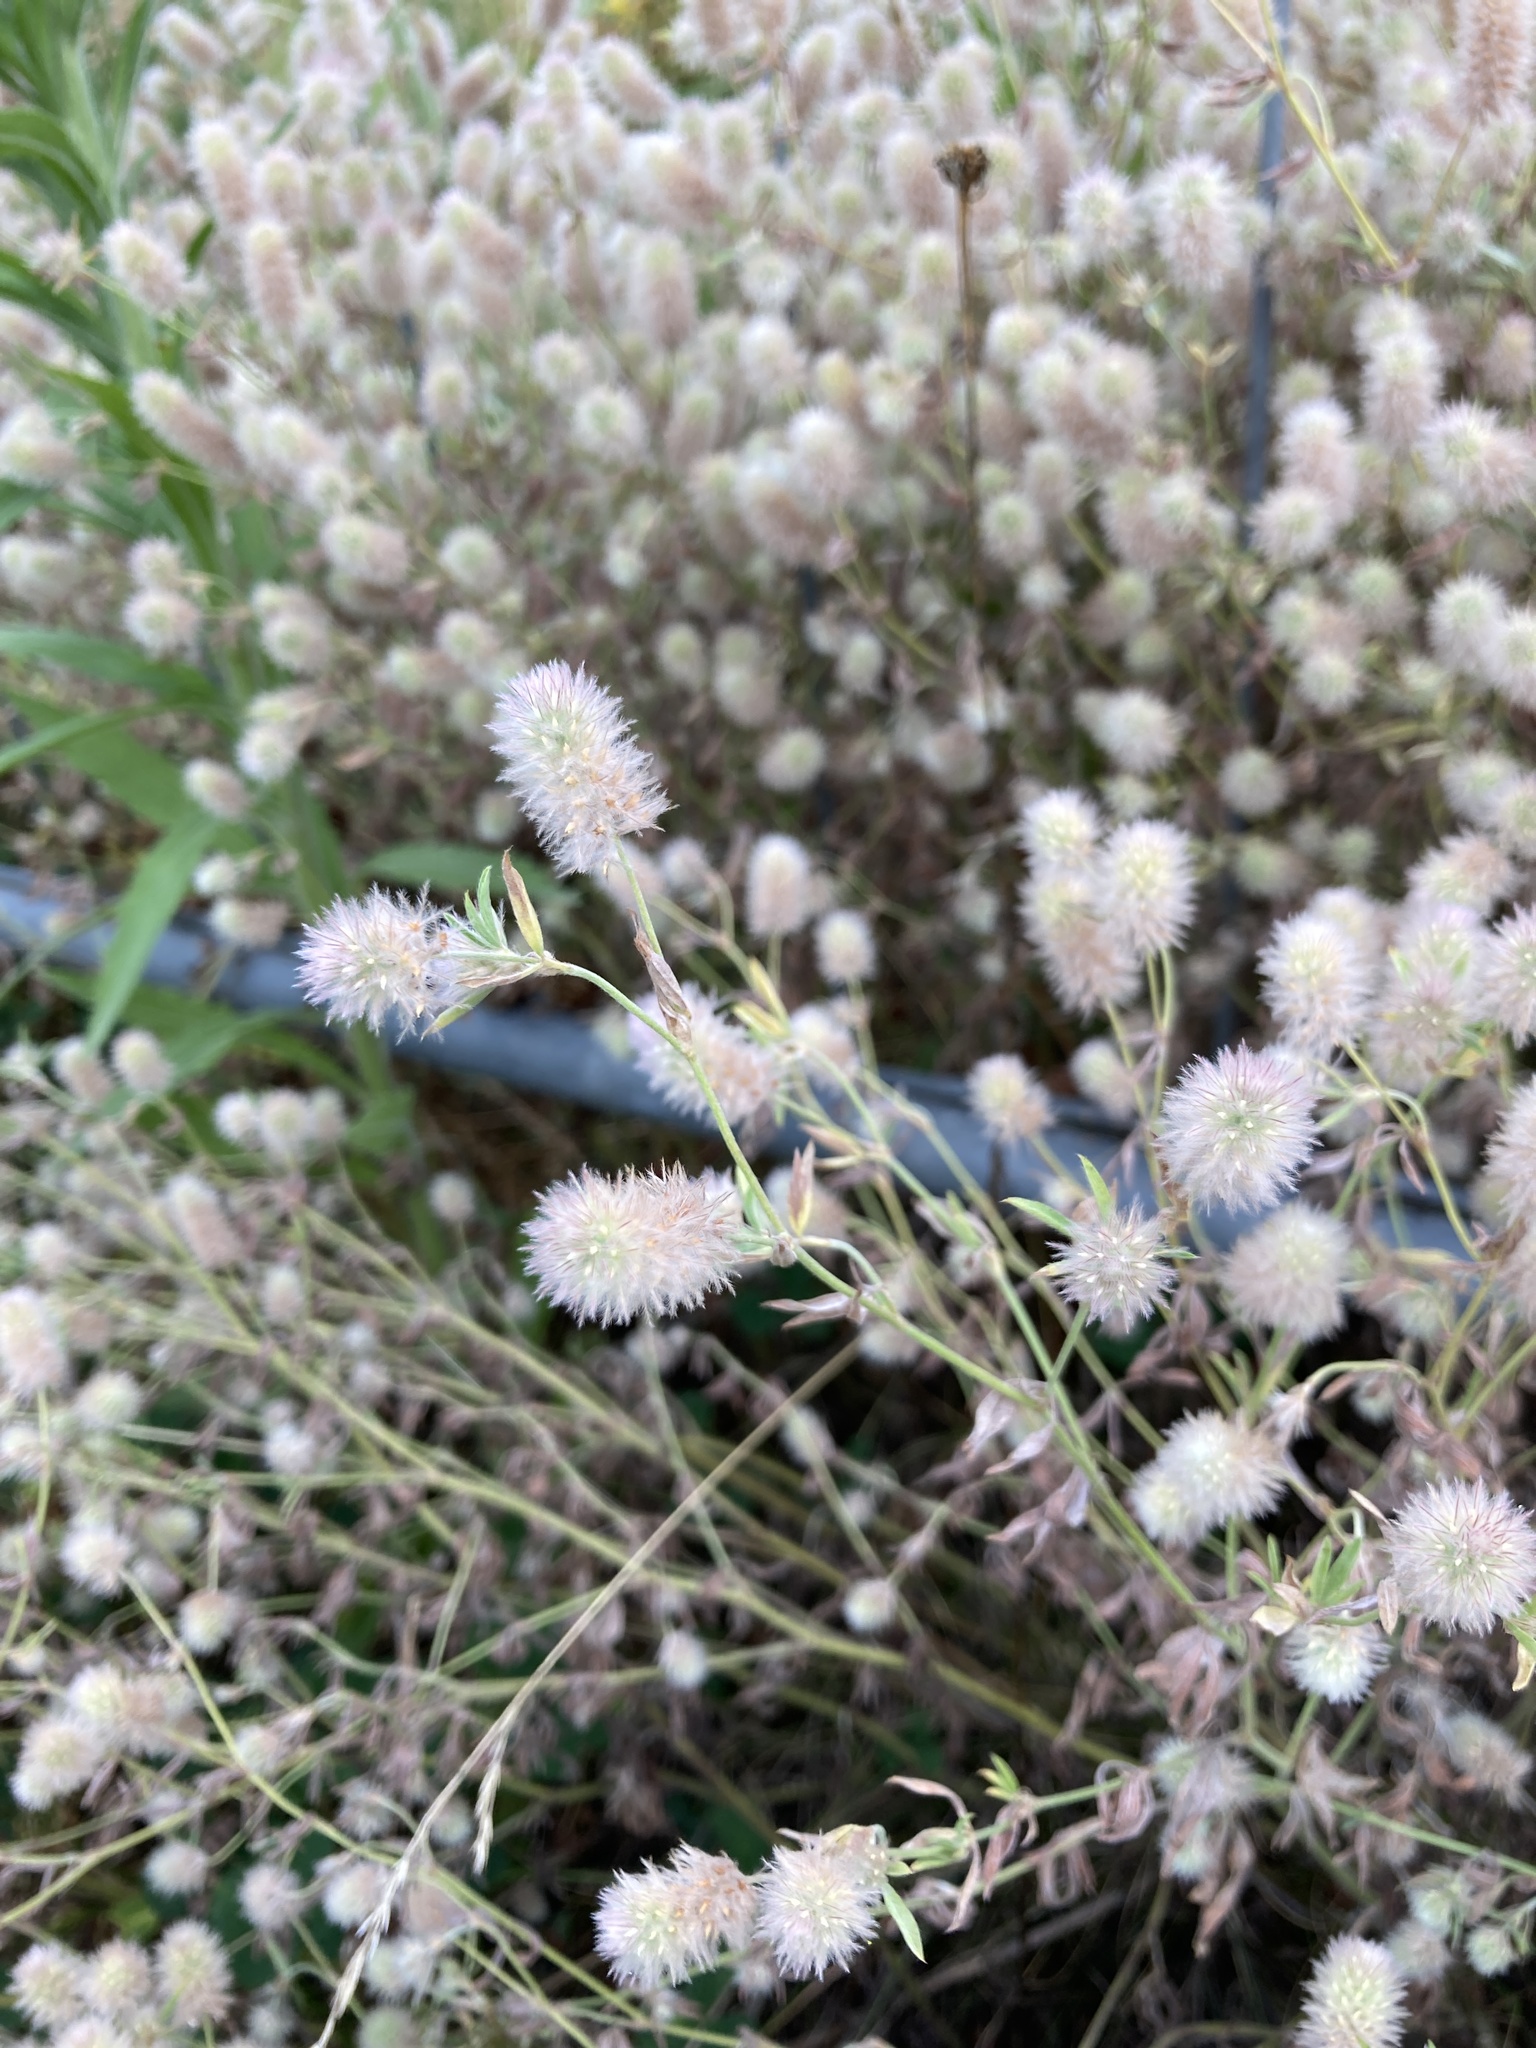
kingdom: Plantae
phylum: Tracheophyta
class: Magnoliopsida
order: Fabales
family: Fabaceae
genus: Trifolium
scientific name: Trifolium arvense
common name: Hare's-foot clover
